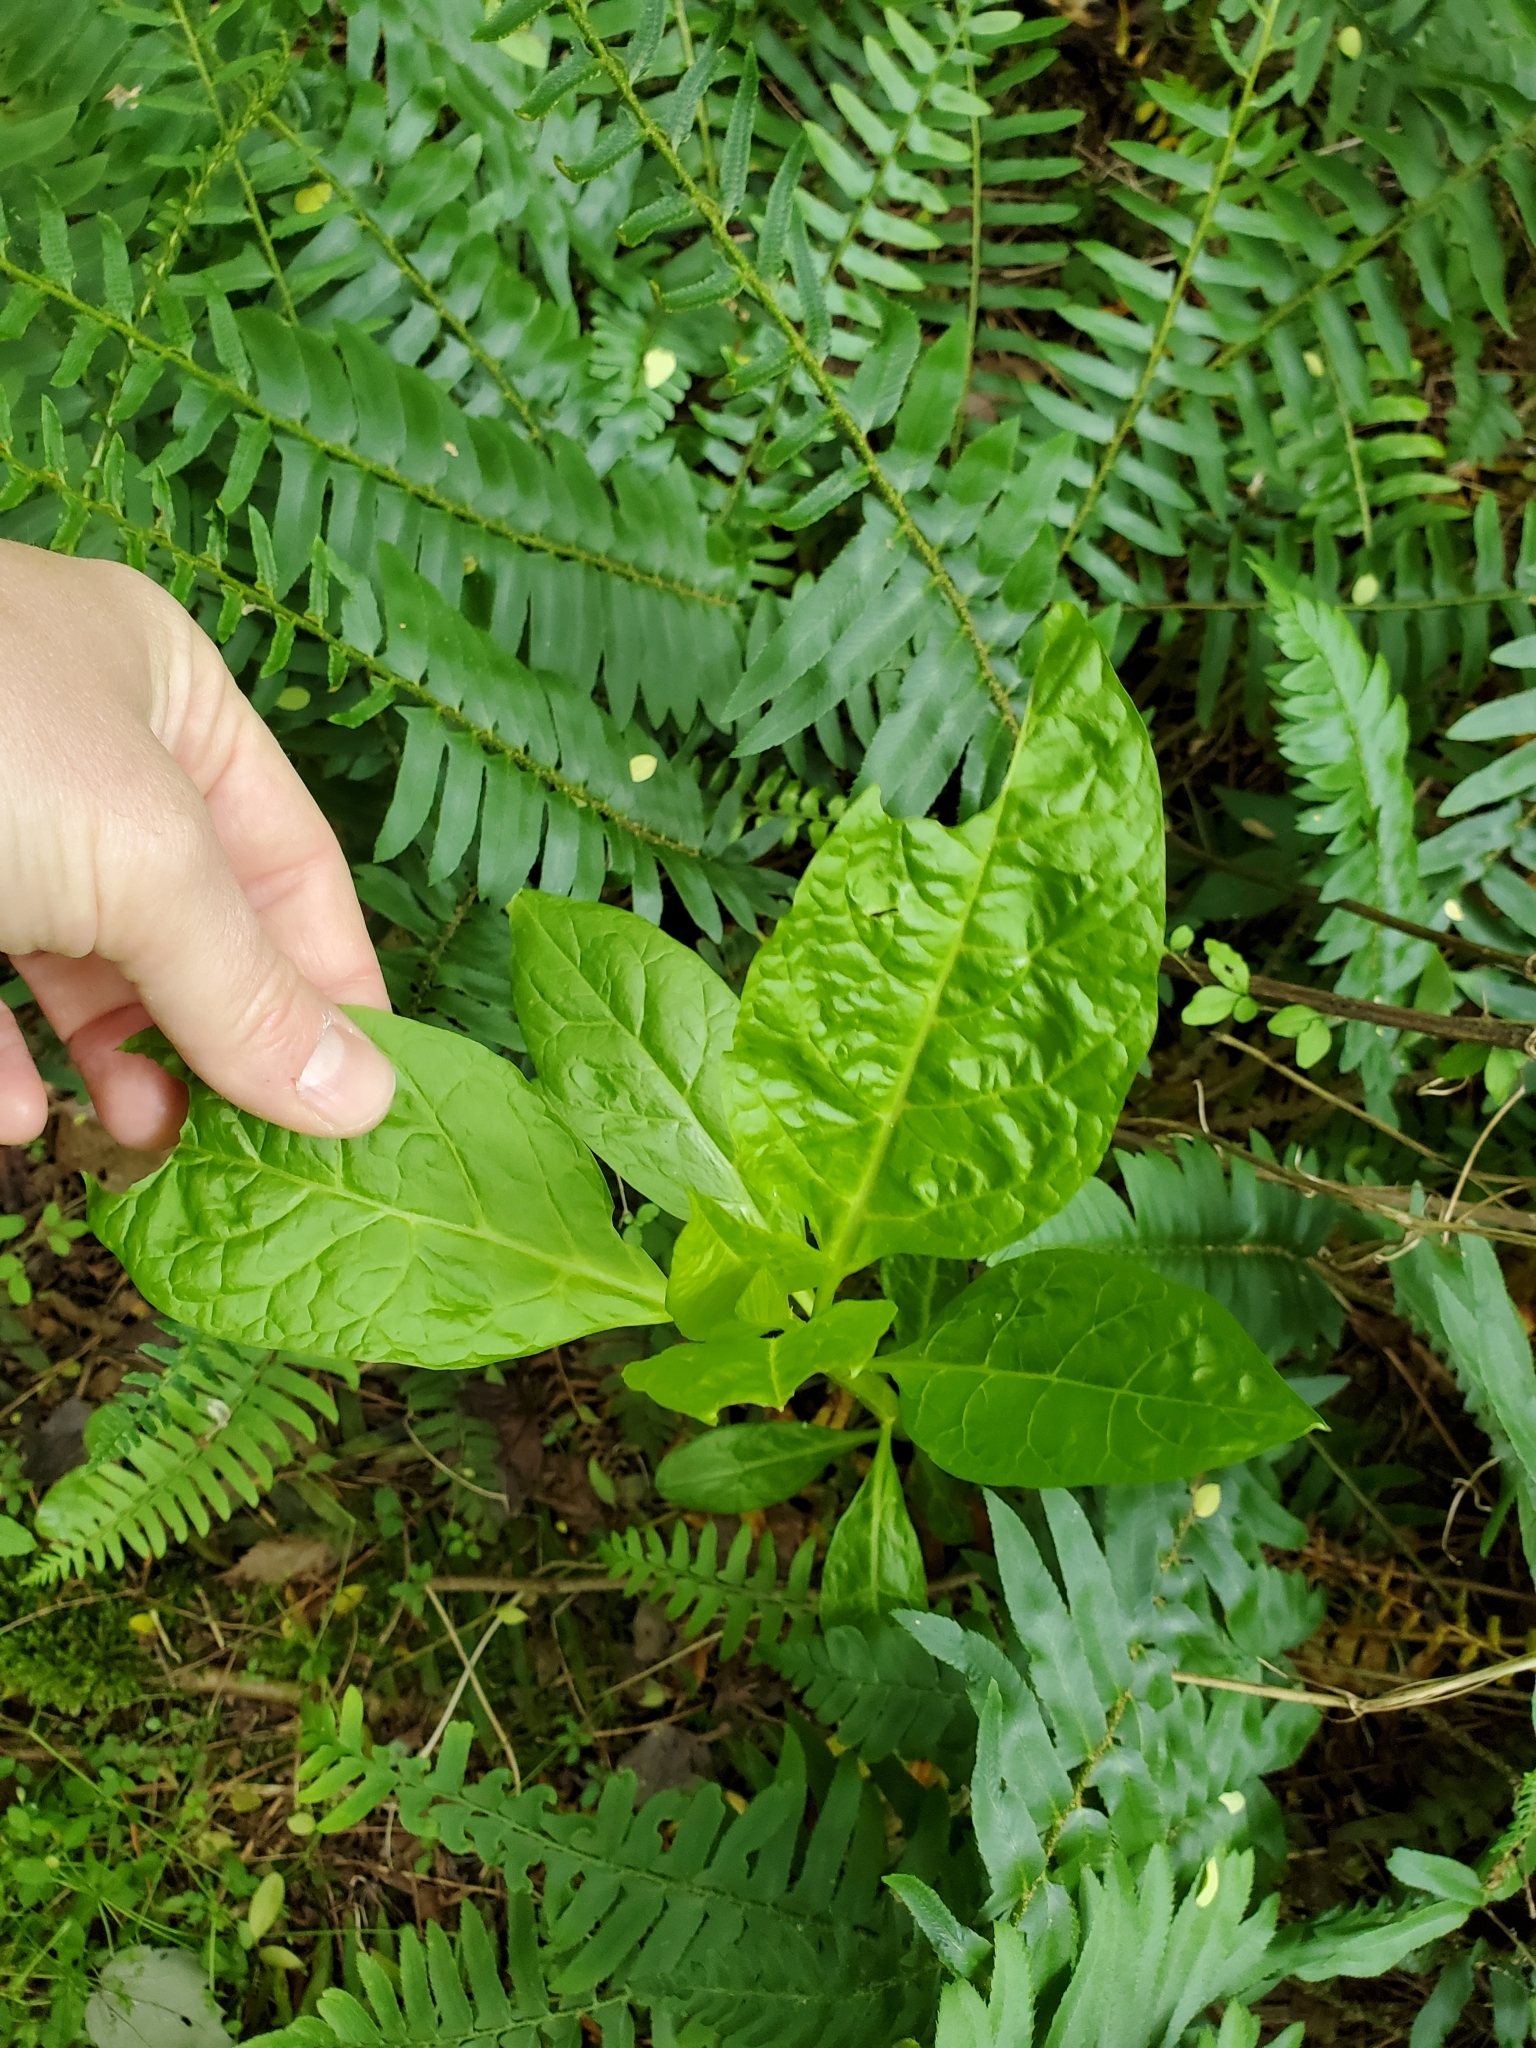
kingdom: Plantae
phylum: Tracheophyta
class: Magnoliopsida
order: Caryophyllales
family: Phytolaccaceae
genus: Phytolacca
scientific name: Phytolacca americana
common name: American pokeweed
